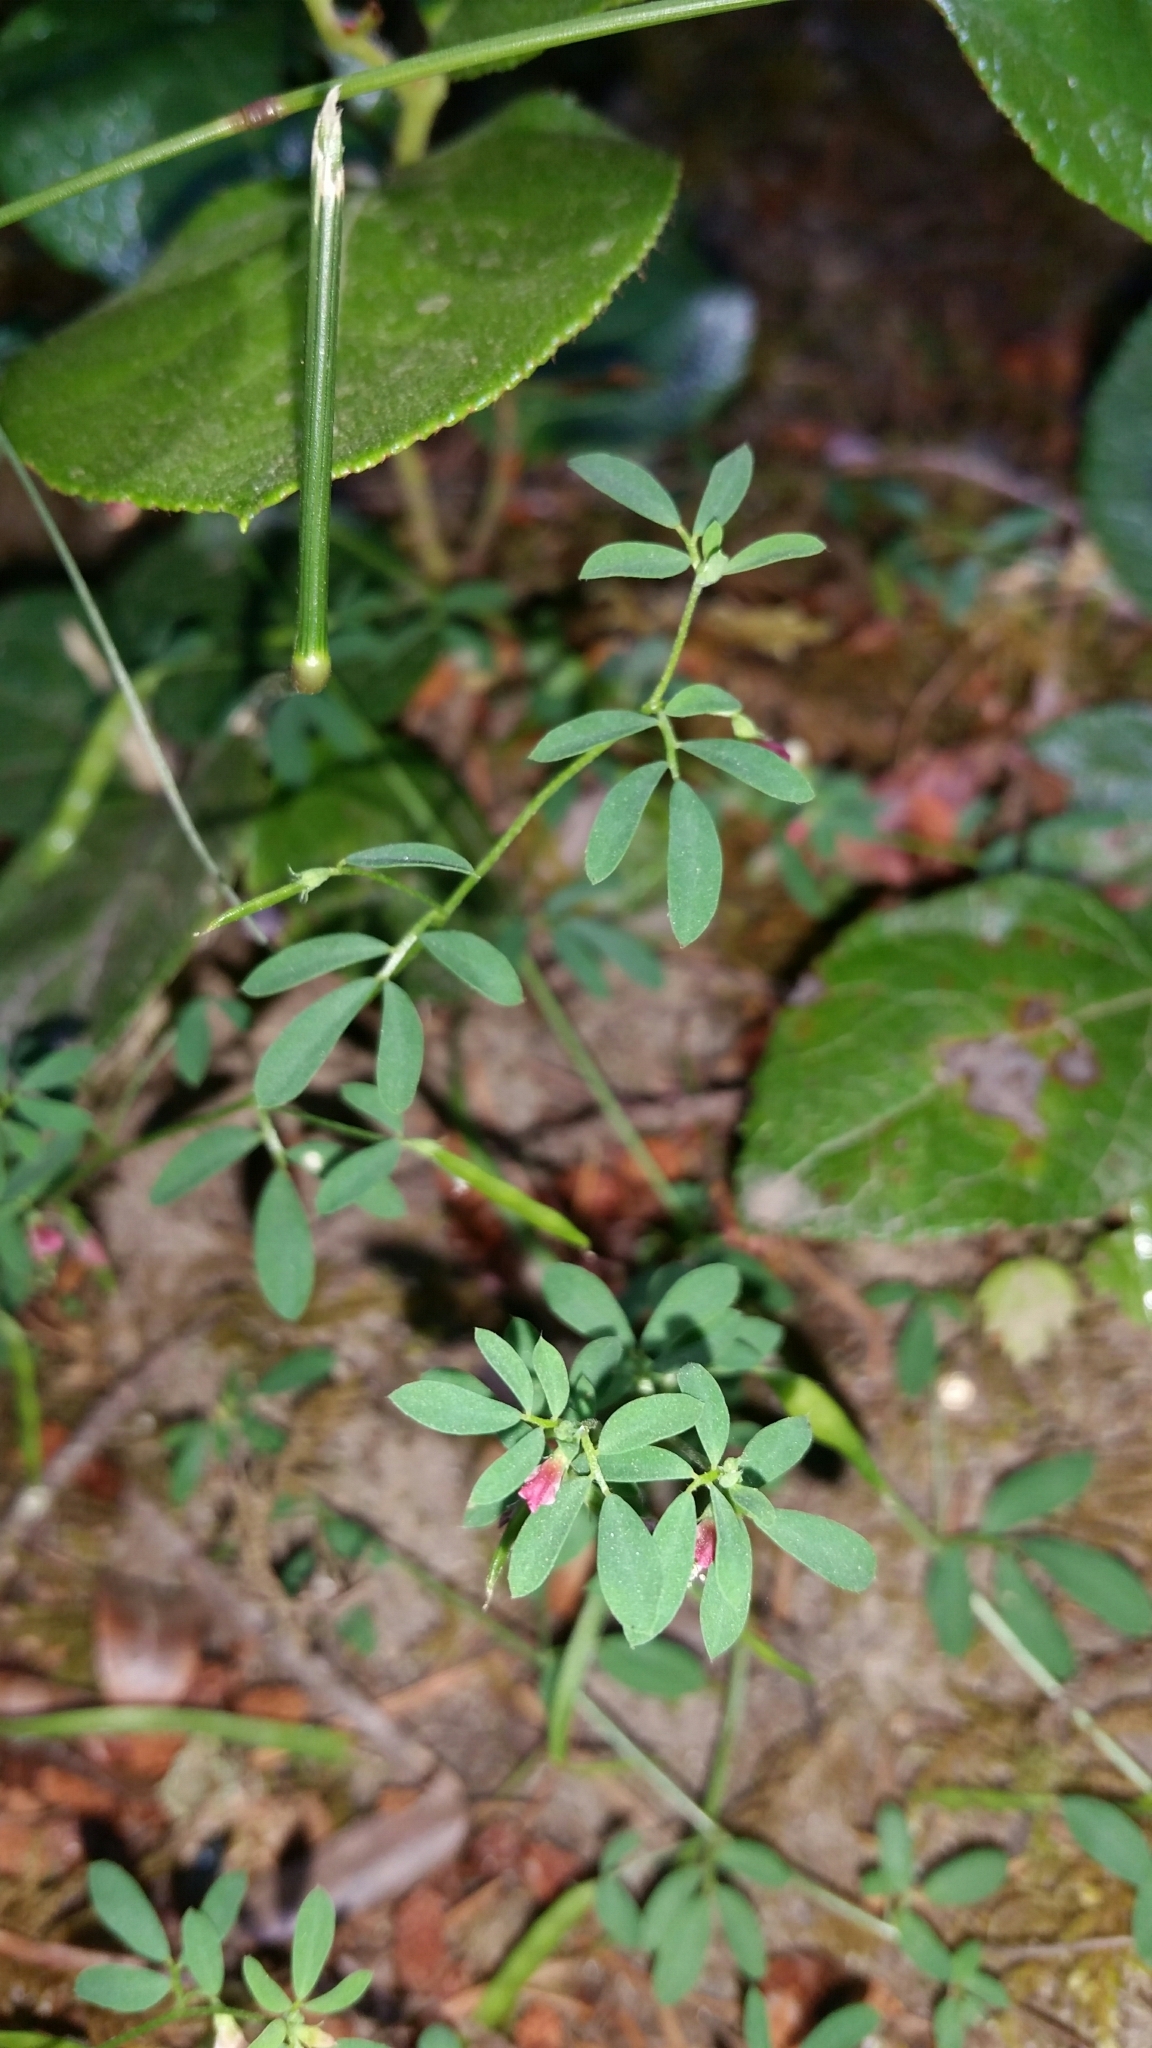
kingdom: Plantae
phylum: Tracheophyta
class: Magnoliopsida
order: Fabales
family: Fabaceae
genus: Acmispon
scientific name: Acmispon parviflorus
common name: Desert deer-vetch
